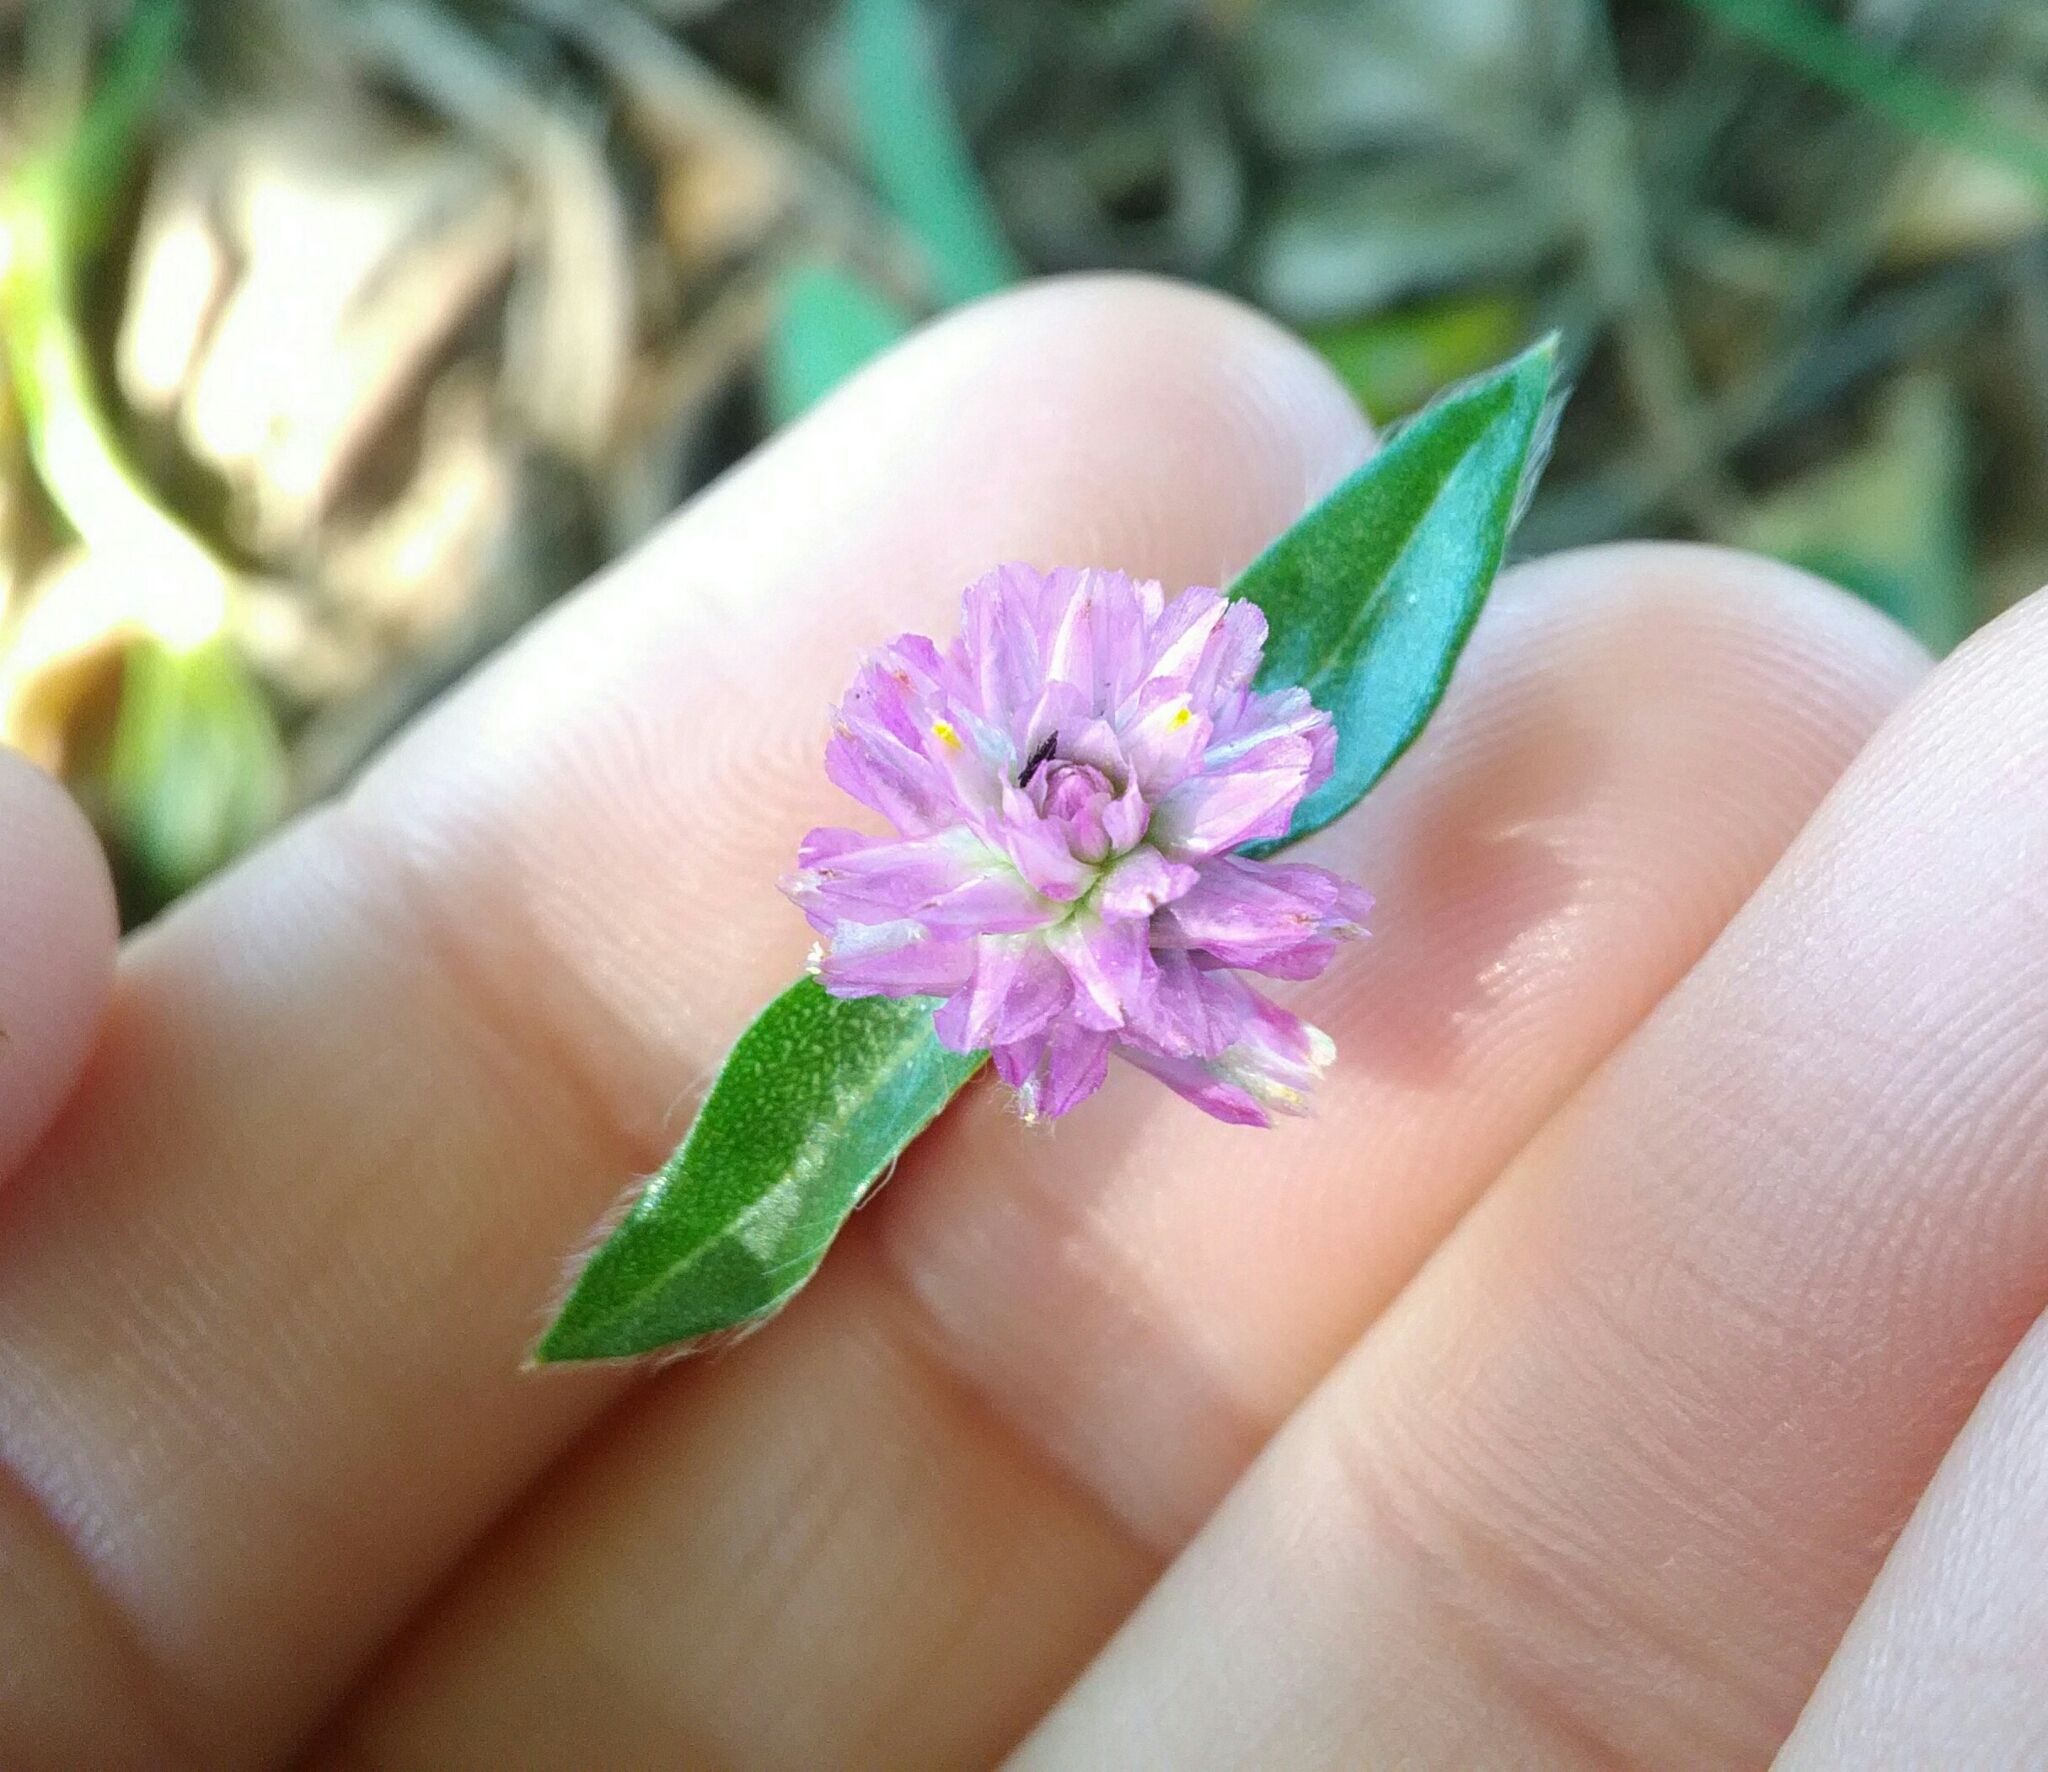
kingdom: Plantae
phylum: Tracheophyta
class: Magnoliopsida
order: Caryophyllales
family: Amaranthaceae
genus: Gomphrena
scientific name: Gomphrena globosa
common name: Common globe amaranth
